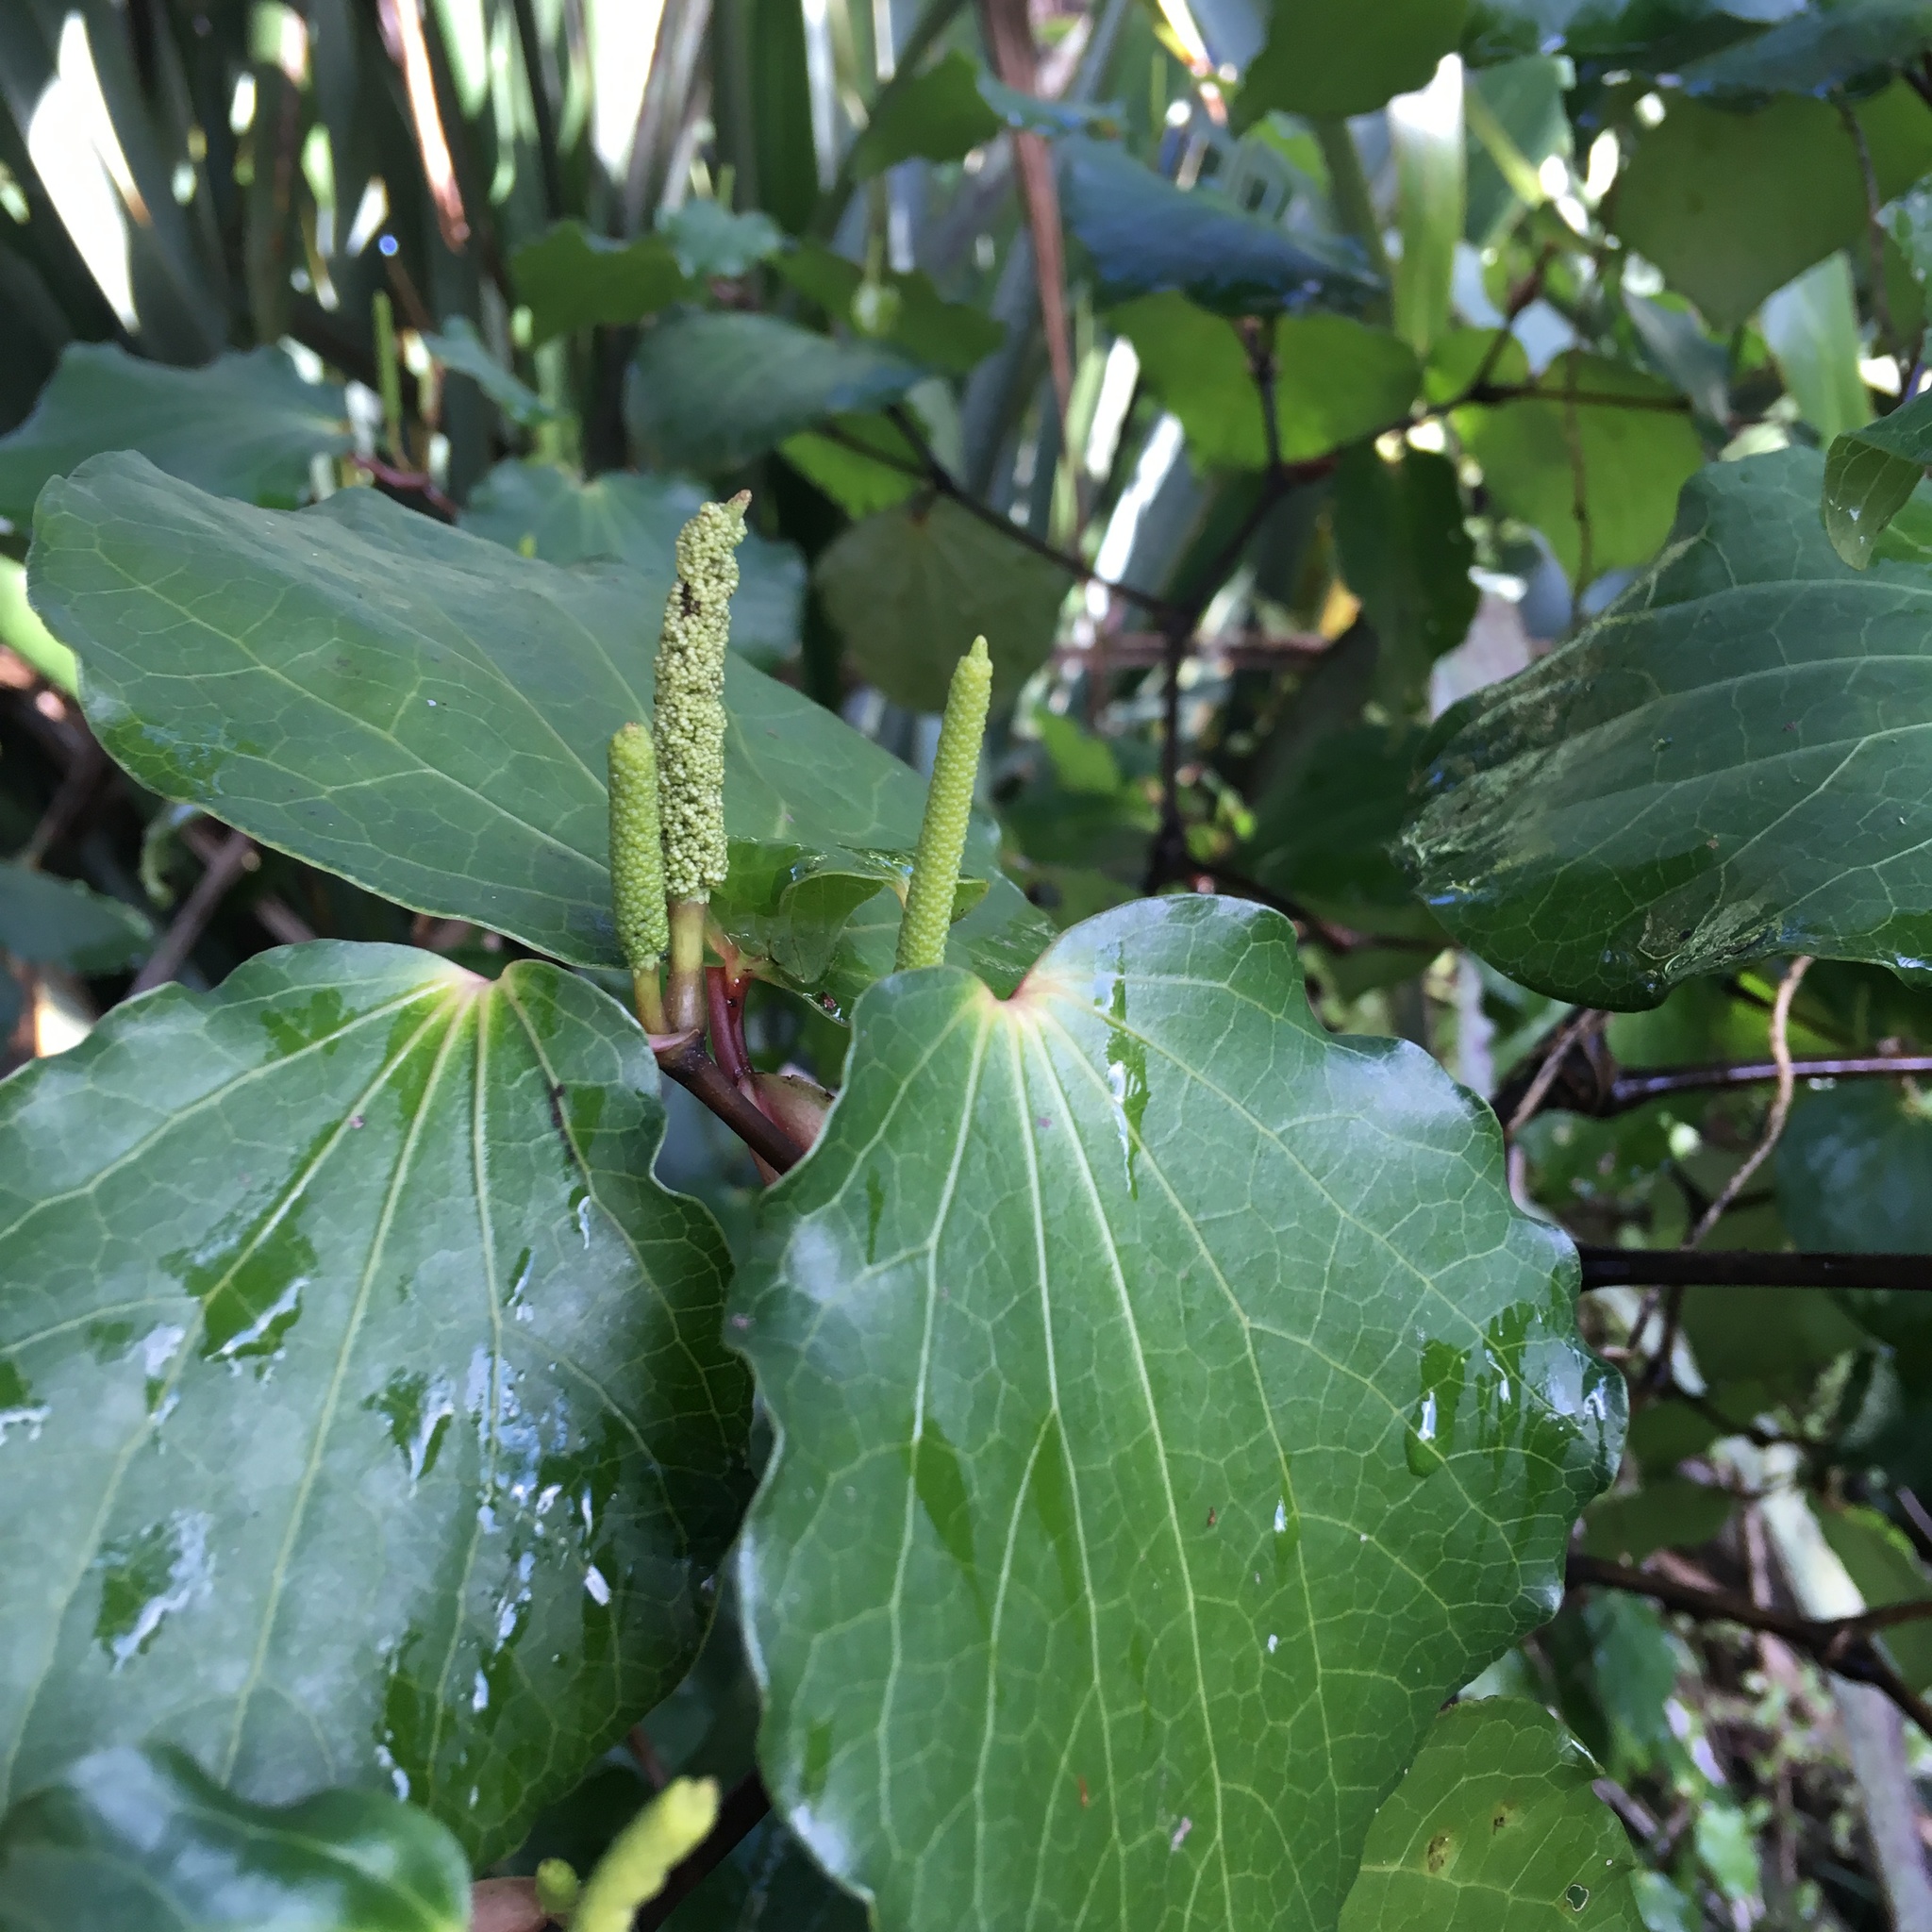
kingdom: Plantae
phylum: Tracheophyta
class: Magnoliopsida
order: Piperales
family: Piperaceae
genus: Macropiper
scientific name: Macropiper excelsum
